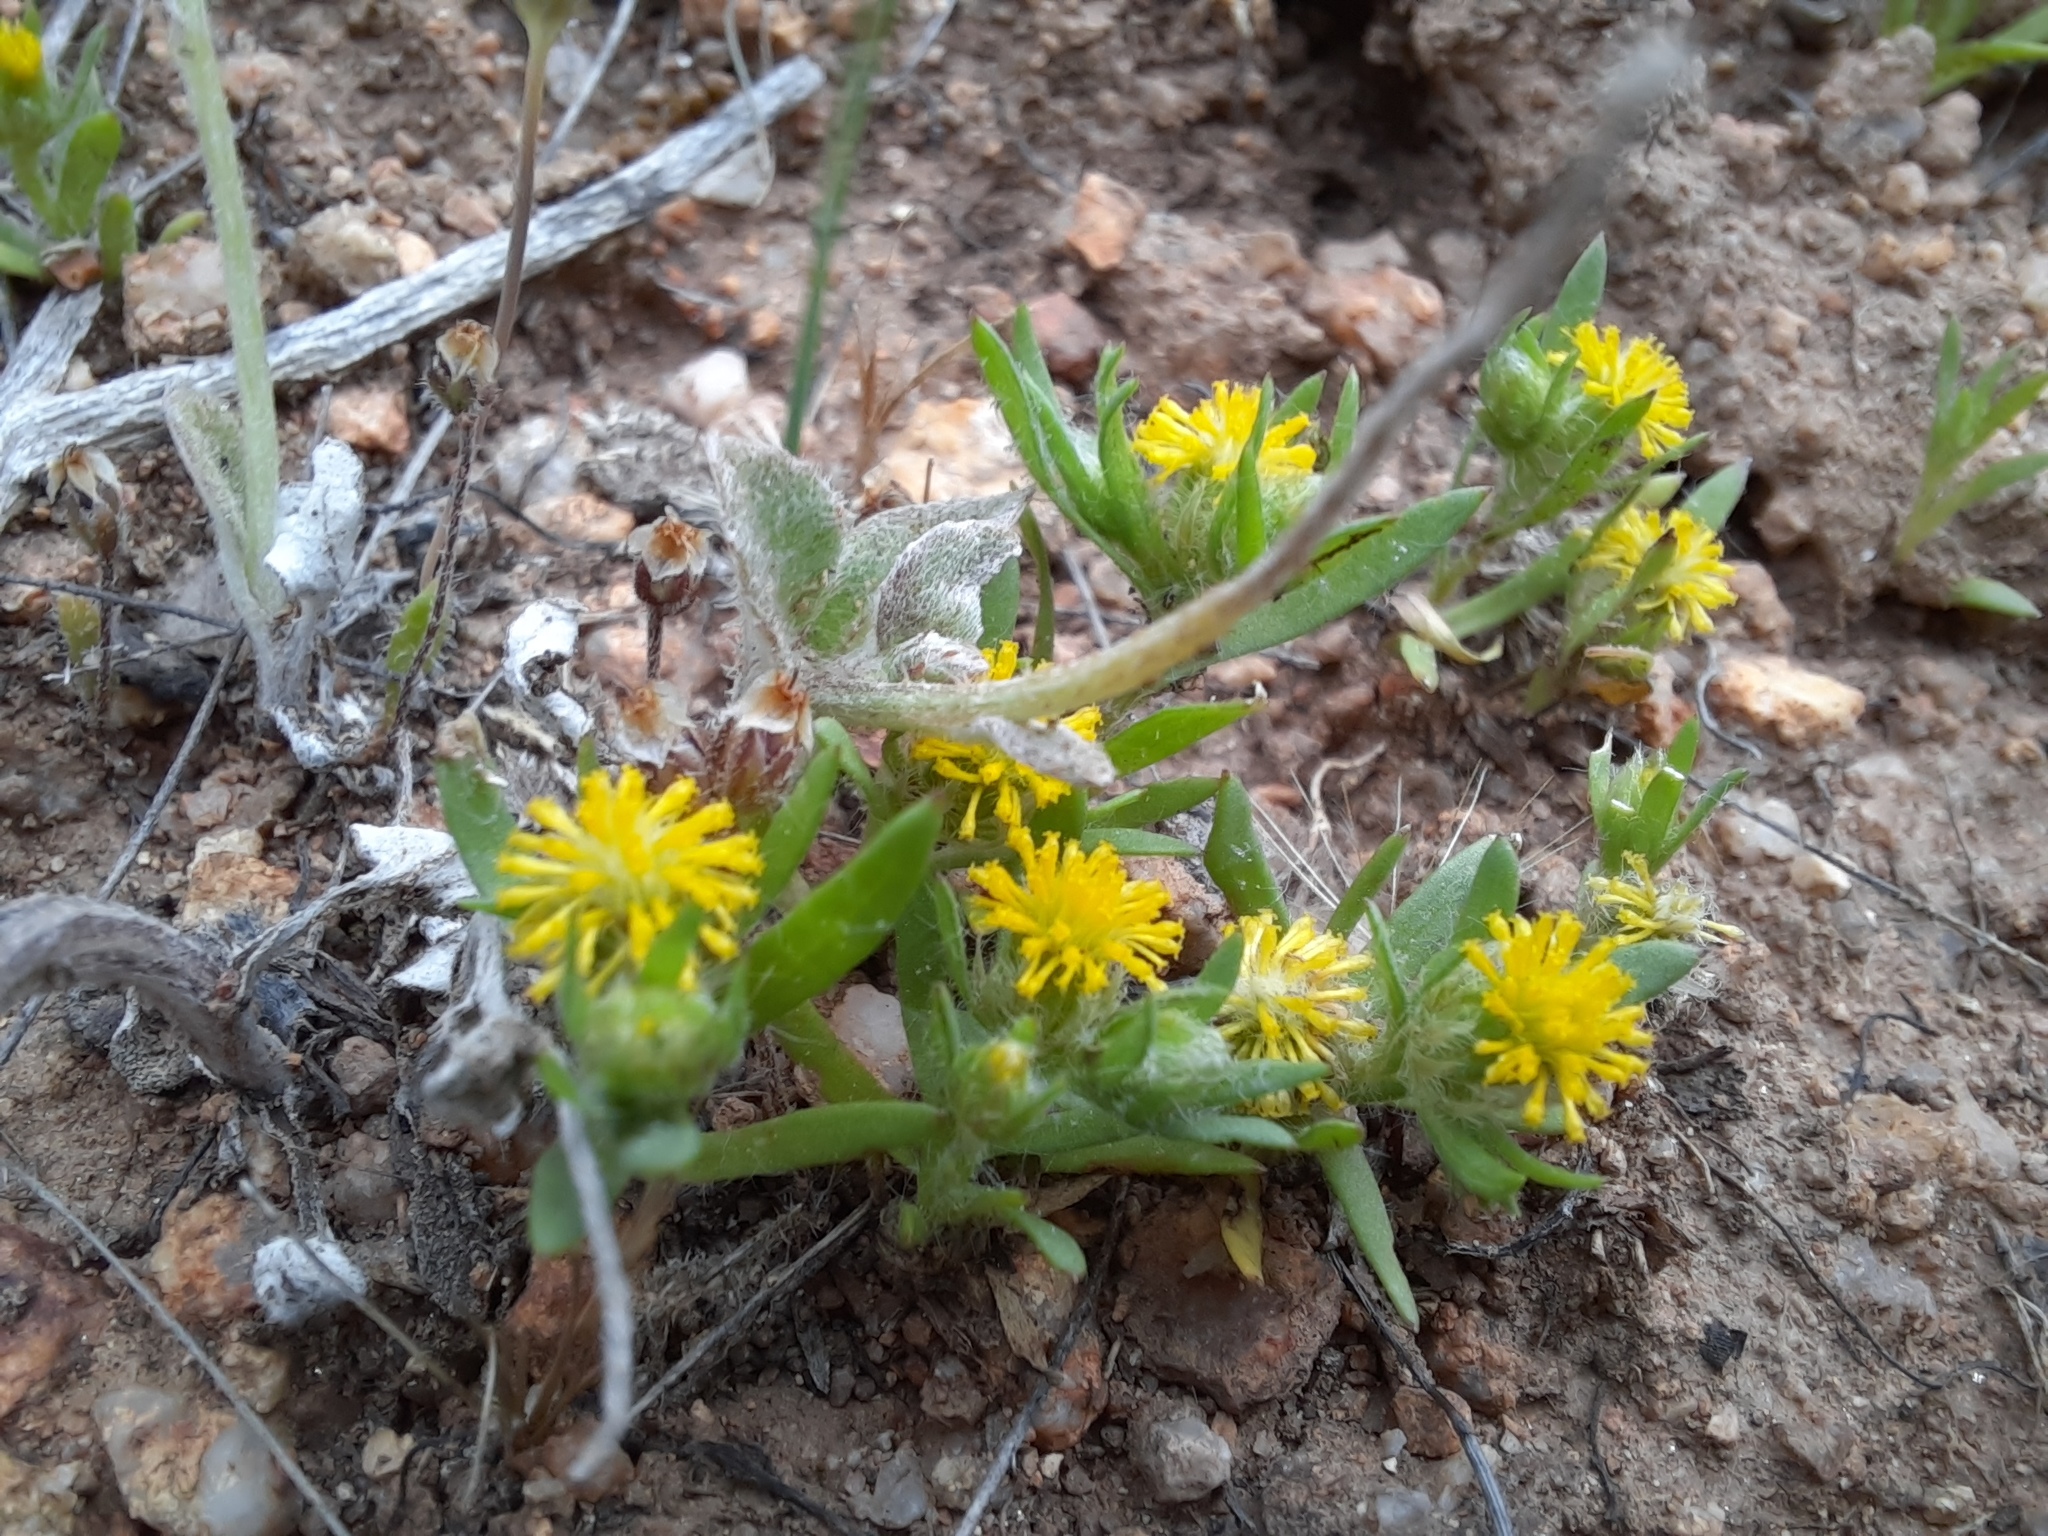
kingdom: Plantae
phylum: Tracheophyta
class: Magnoliopsida
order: Asterales
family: Asteraceae
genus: Triptilodiscus
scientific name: Triptilodiscus pygmaeus
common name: Common sunray
